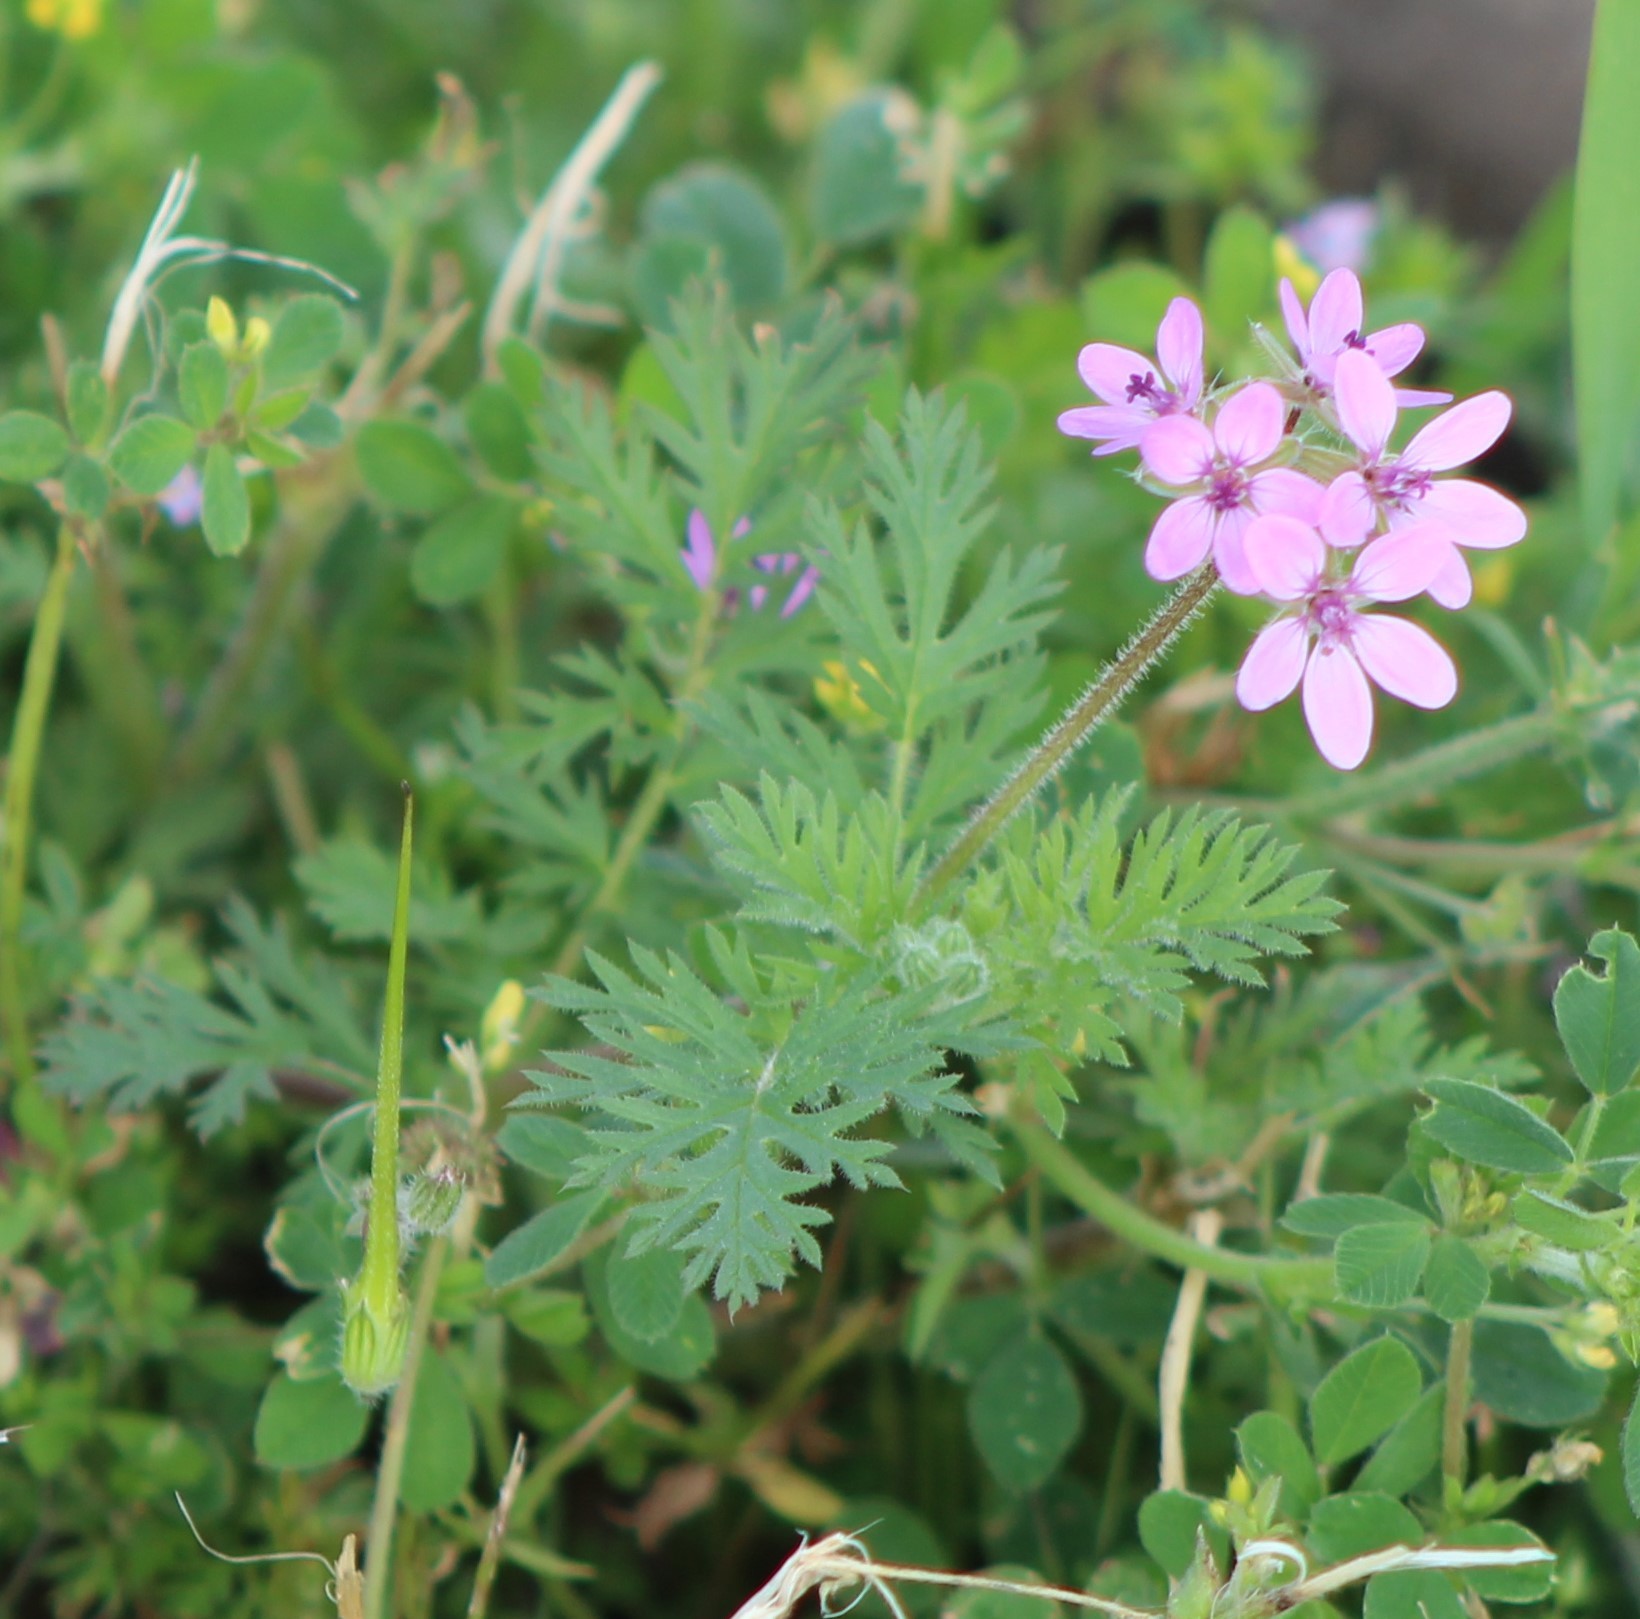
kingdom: Plantae
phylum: Tracheophyta
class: Magnoliopsida
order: Geraniales
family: Geraniaceae
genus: Erodium
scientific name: Erodium cicutarium
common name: Common stork's-bill
